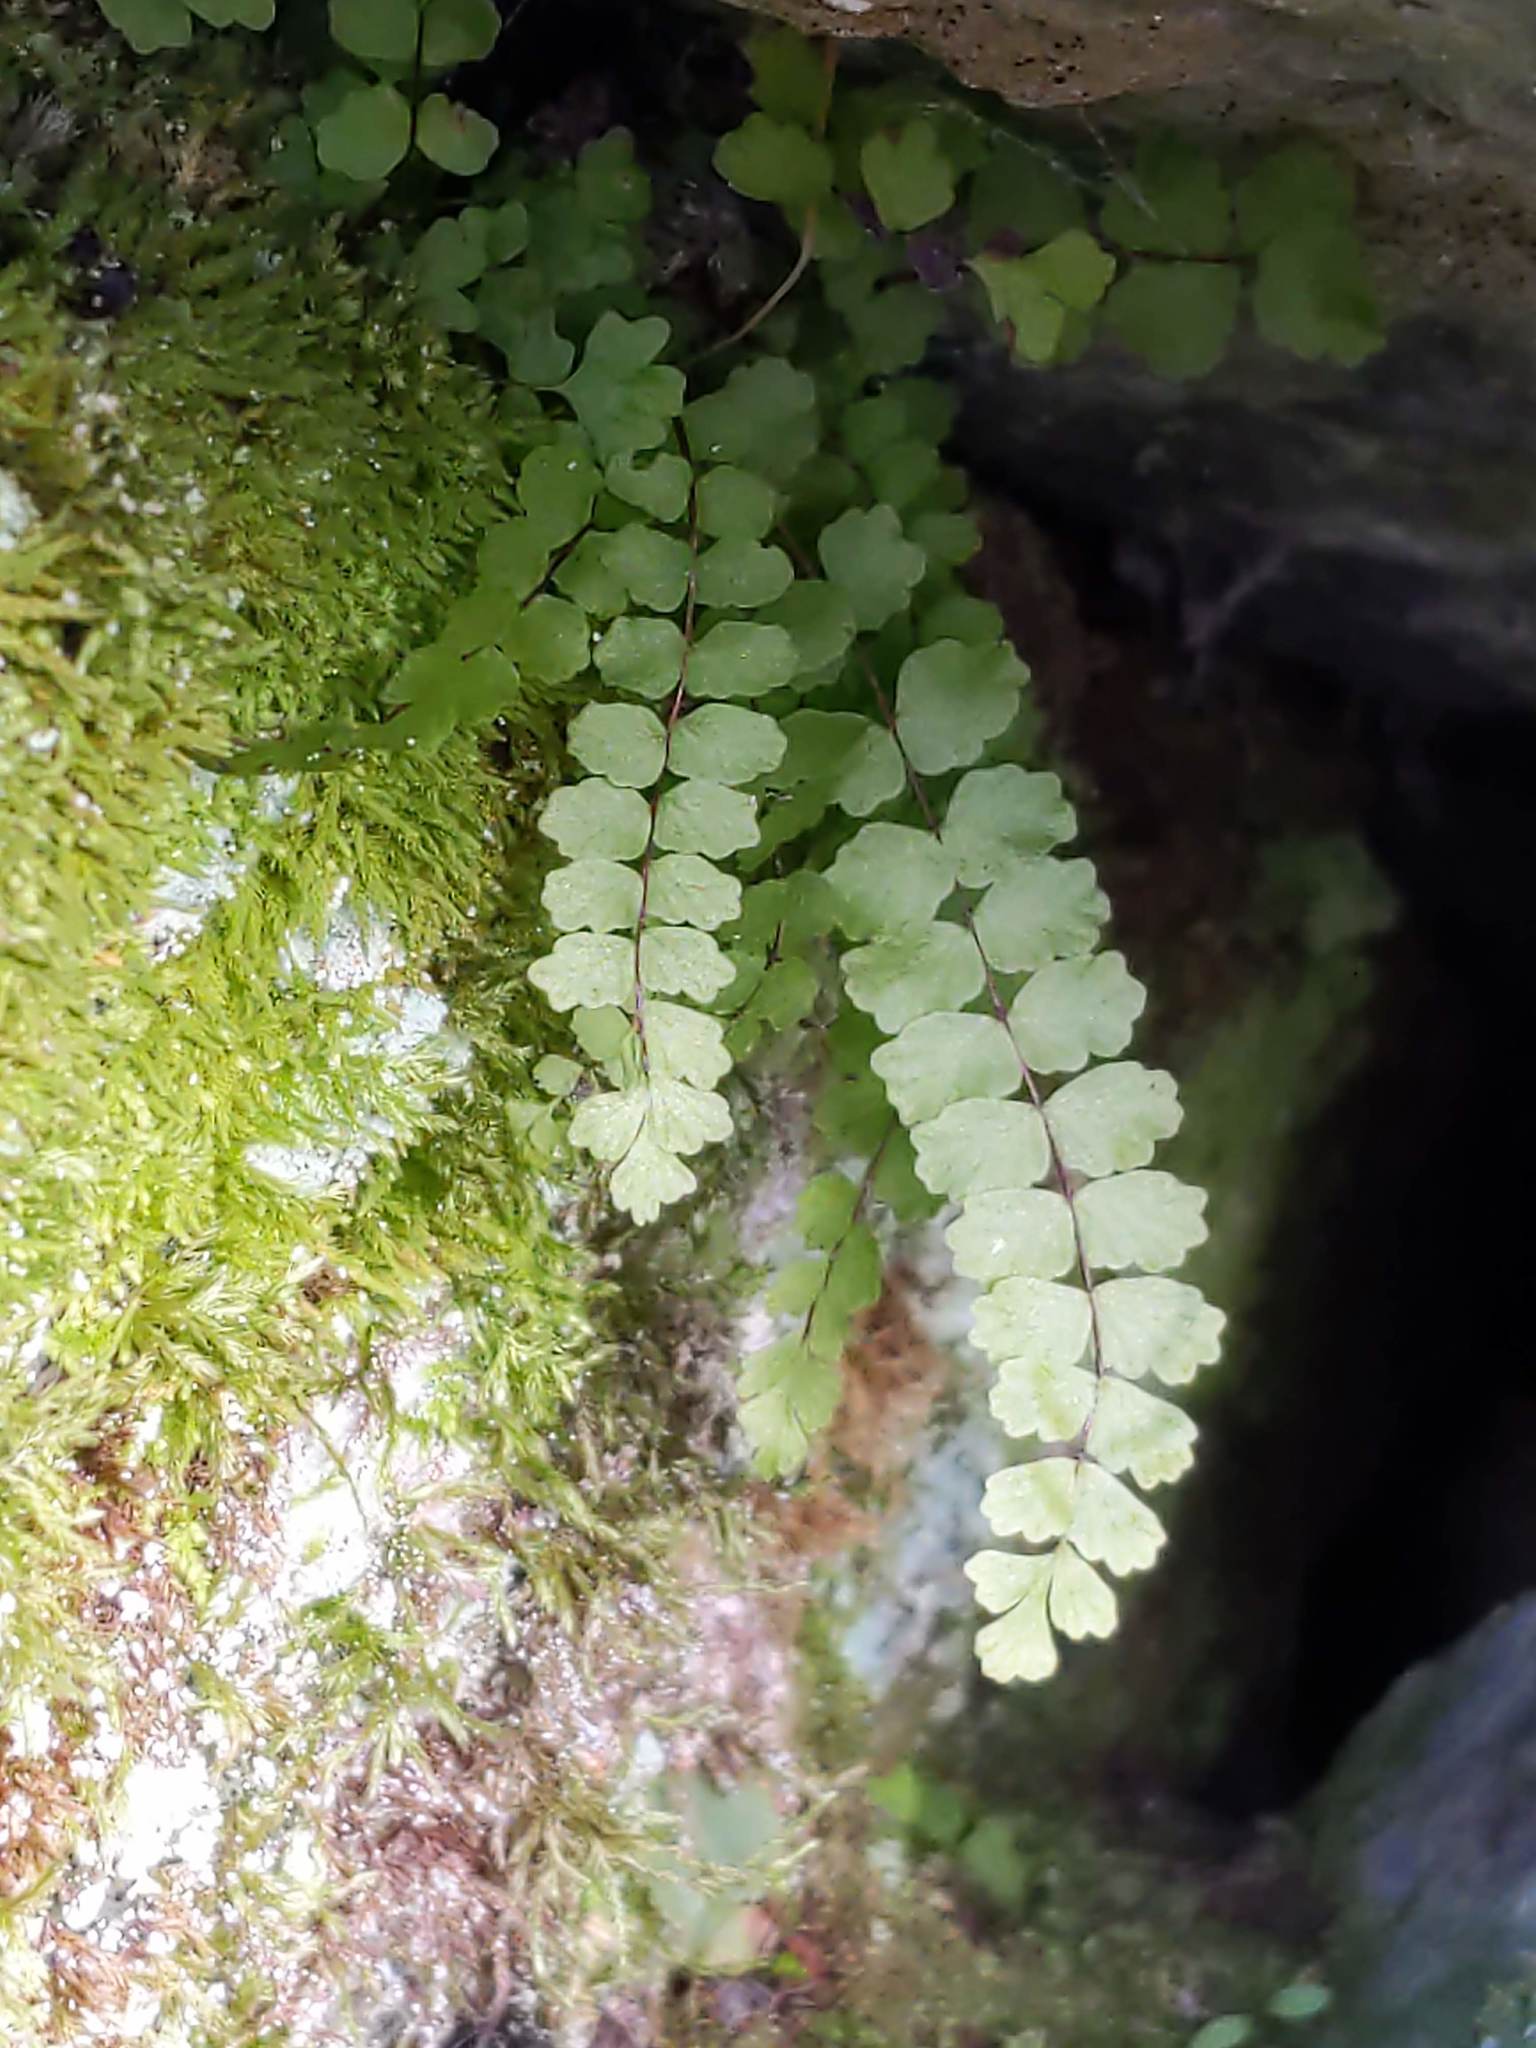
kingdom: Plantae
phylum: Tracheophyta
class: Polypodiopsida
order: Polypodiales
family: Aspleniaceae
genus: Asplenium
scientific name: Asplenium trichomanes
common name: Maidenhair spleenwort
